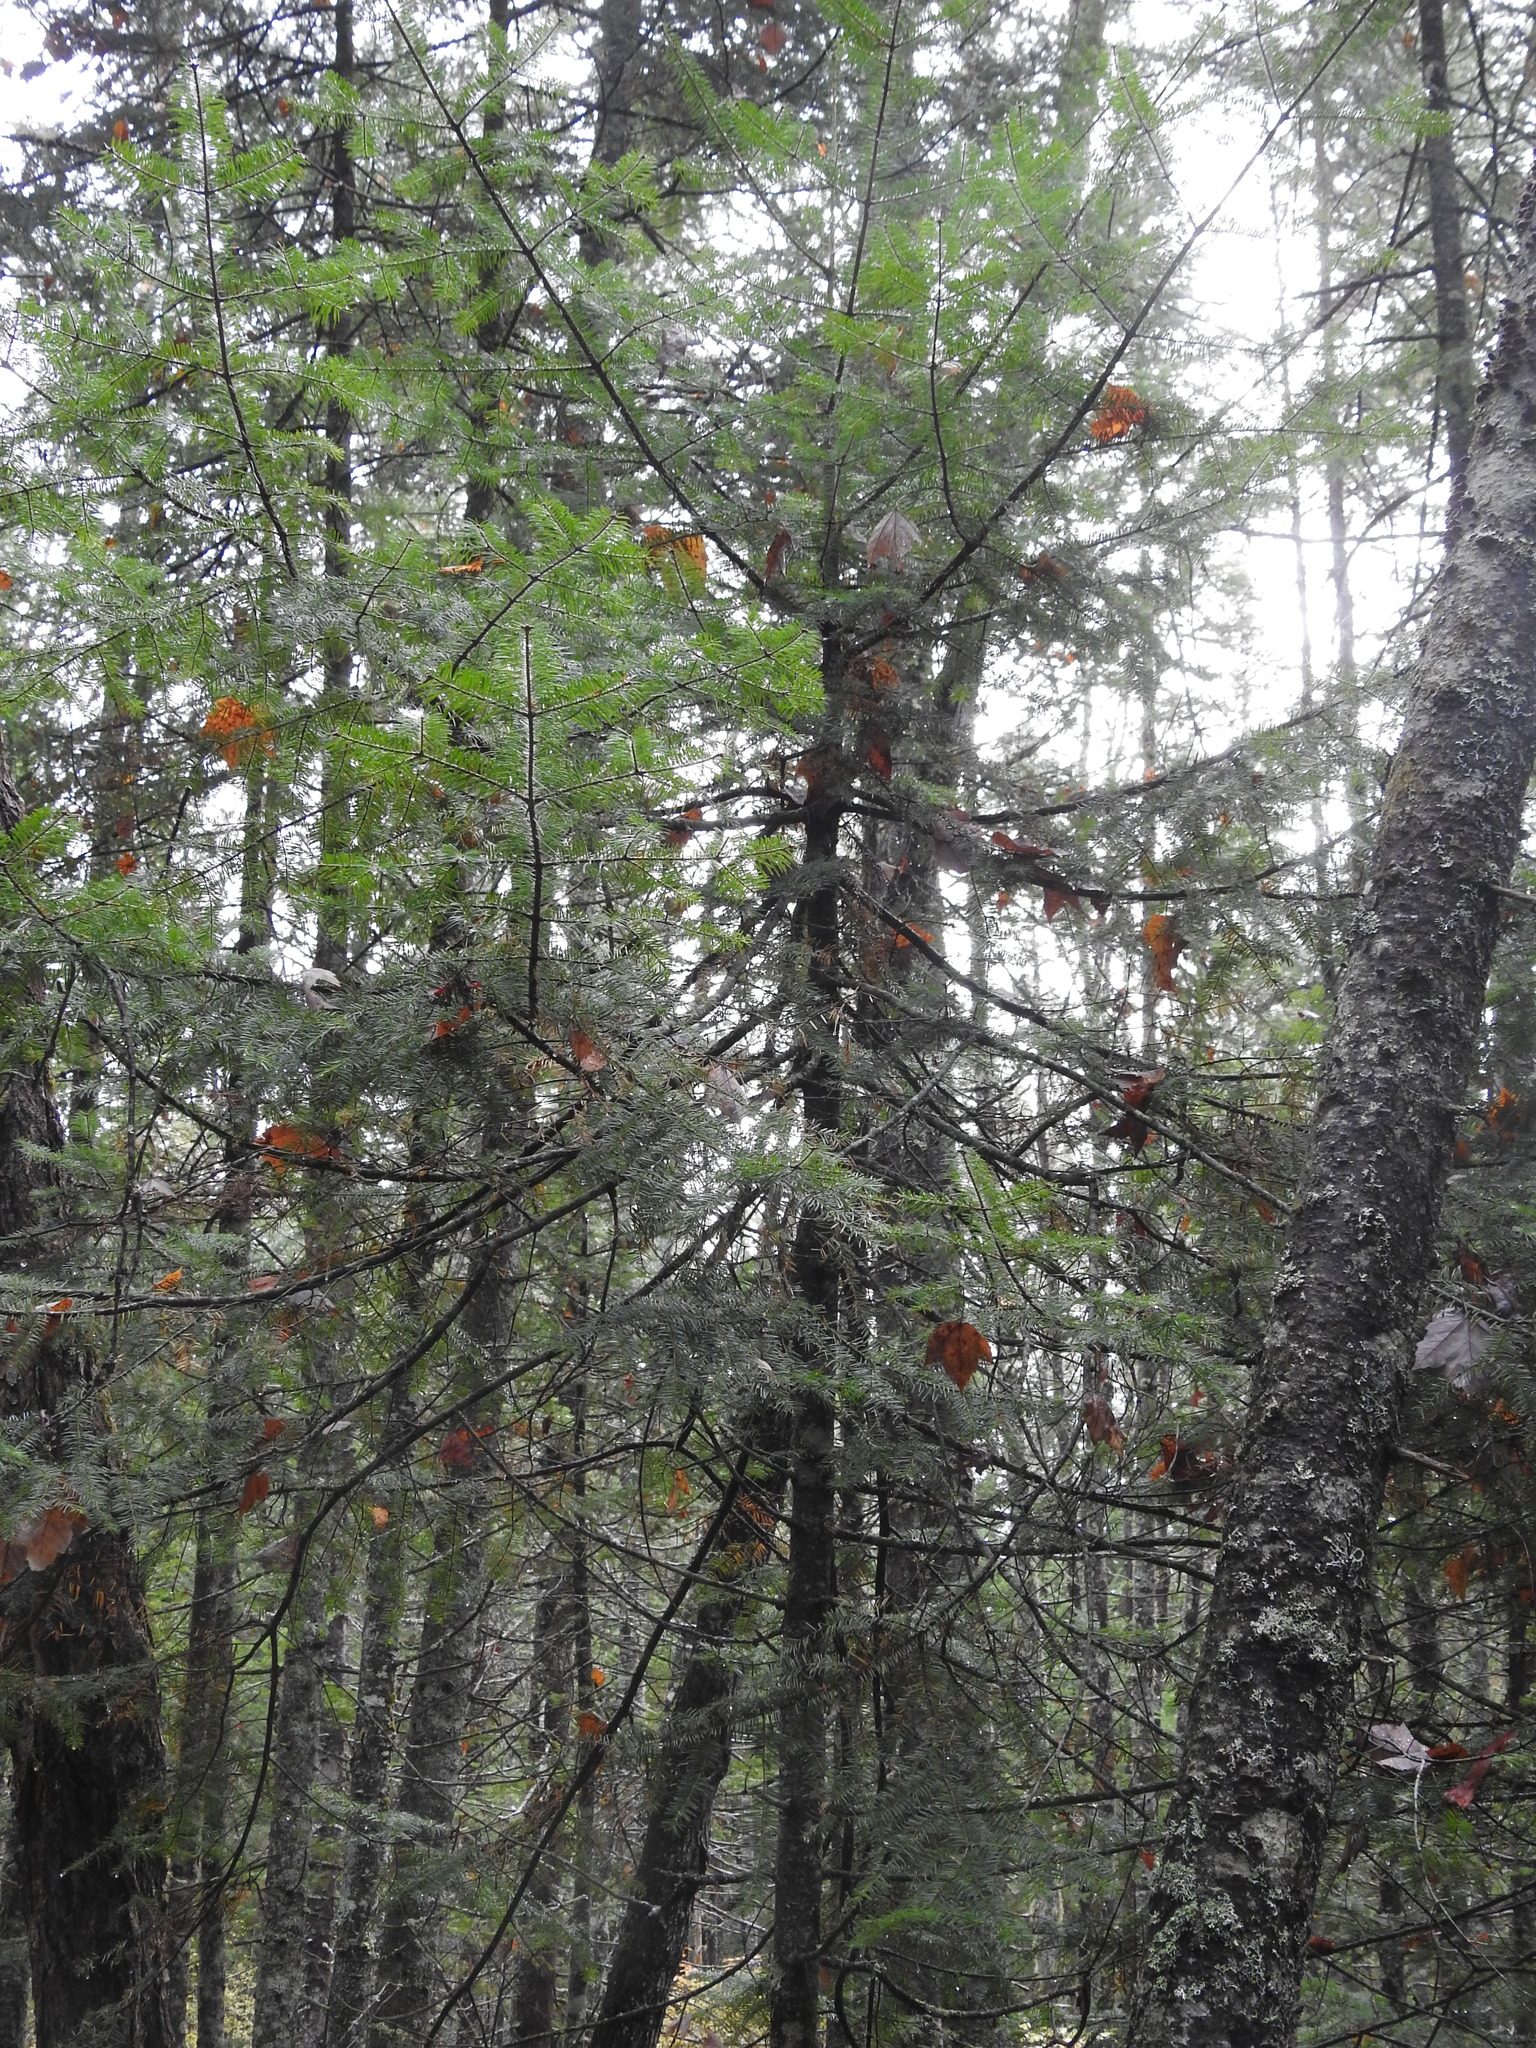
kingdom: Plantae
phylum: Tracheophyta
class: Pinopsida
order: Pinales
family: Pinaceae
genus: Abies
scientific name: Abies balsamea
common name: Balsam fir
